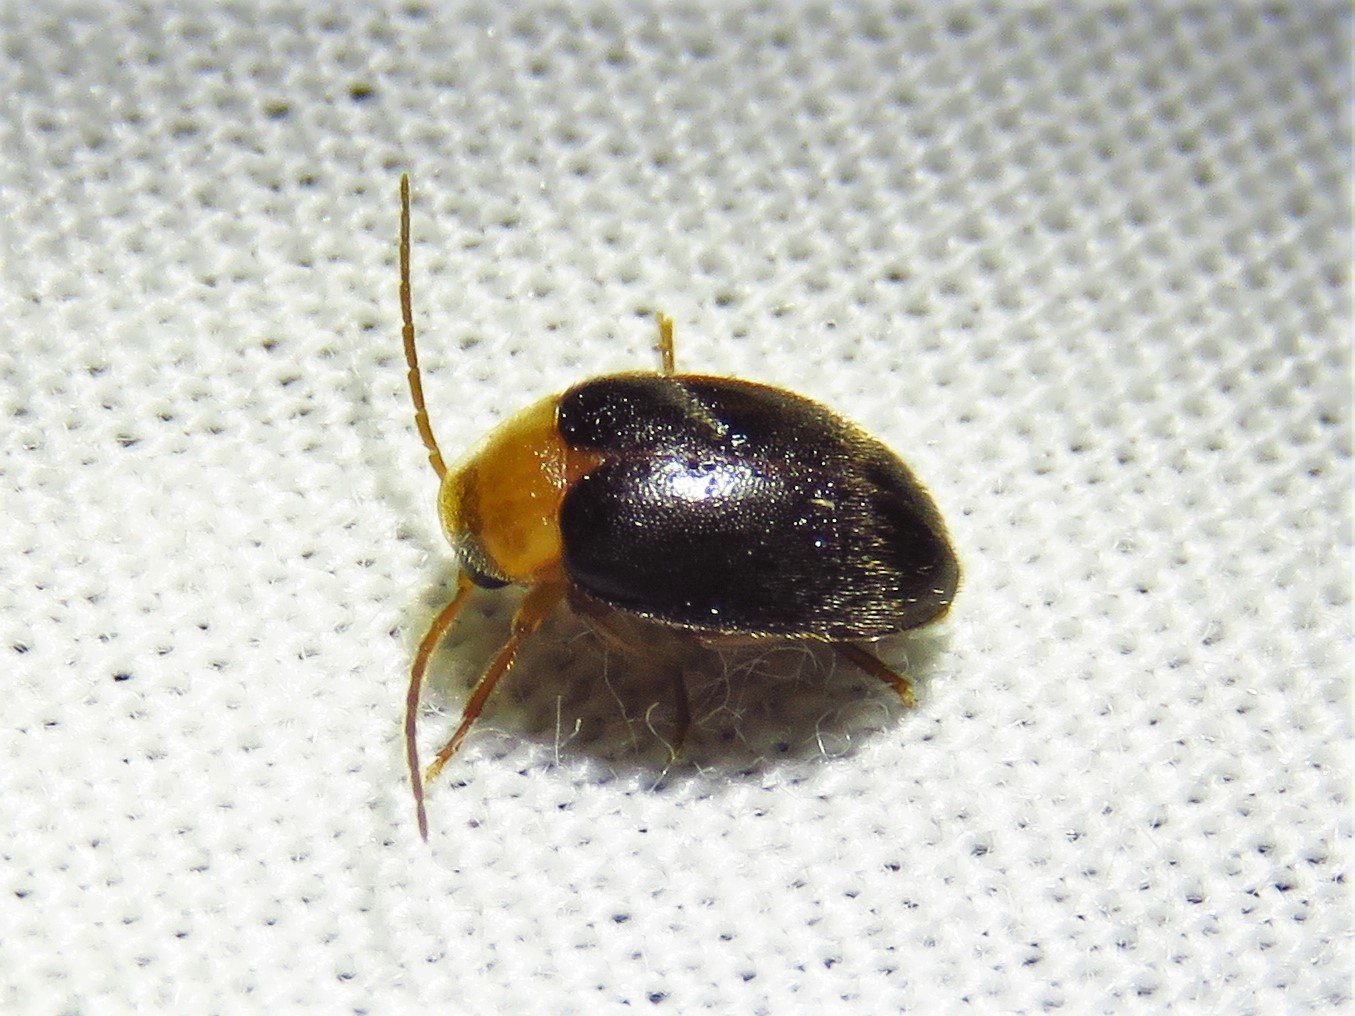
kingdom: Animalia
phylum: Arthropoda
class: Insecta
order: Coleoptera
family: Scirtidae
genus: Sacodes
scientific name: Sacodes pulchella
